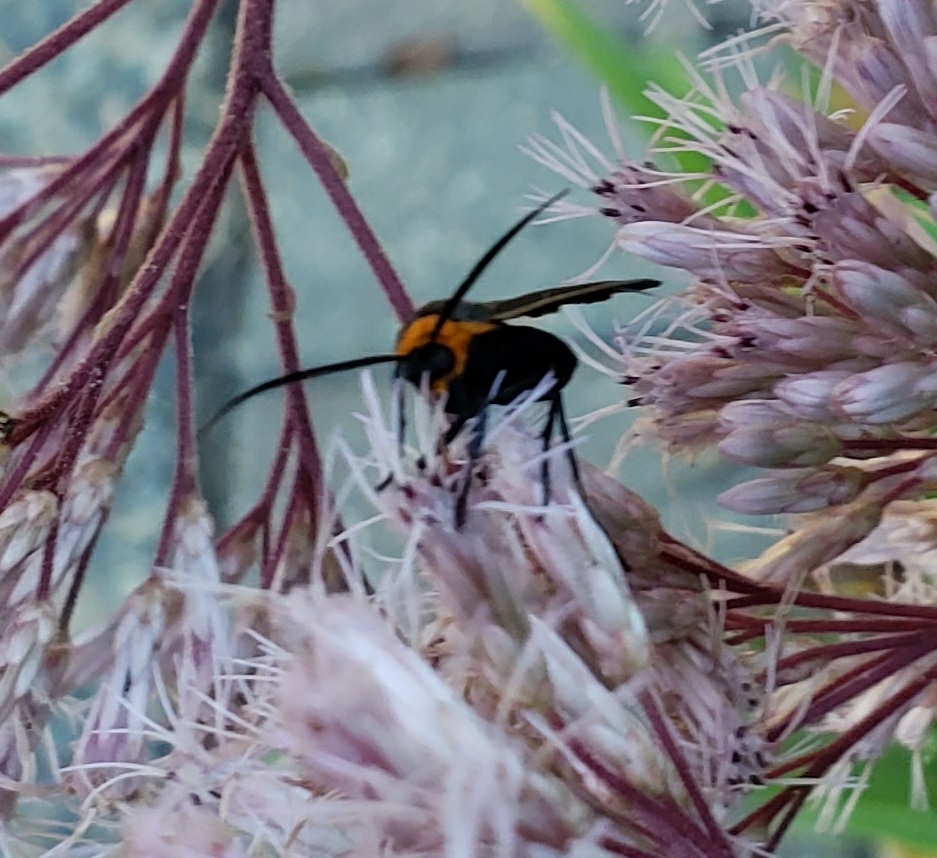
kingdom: Animalia
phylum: Arthropoda
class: Insecta
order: Lepidoptera
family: Erebidae
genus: Cisseps
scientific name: Cisseps fulvicollis
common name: Yellow-collared scape moth
